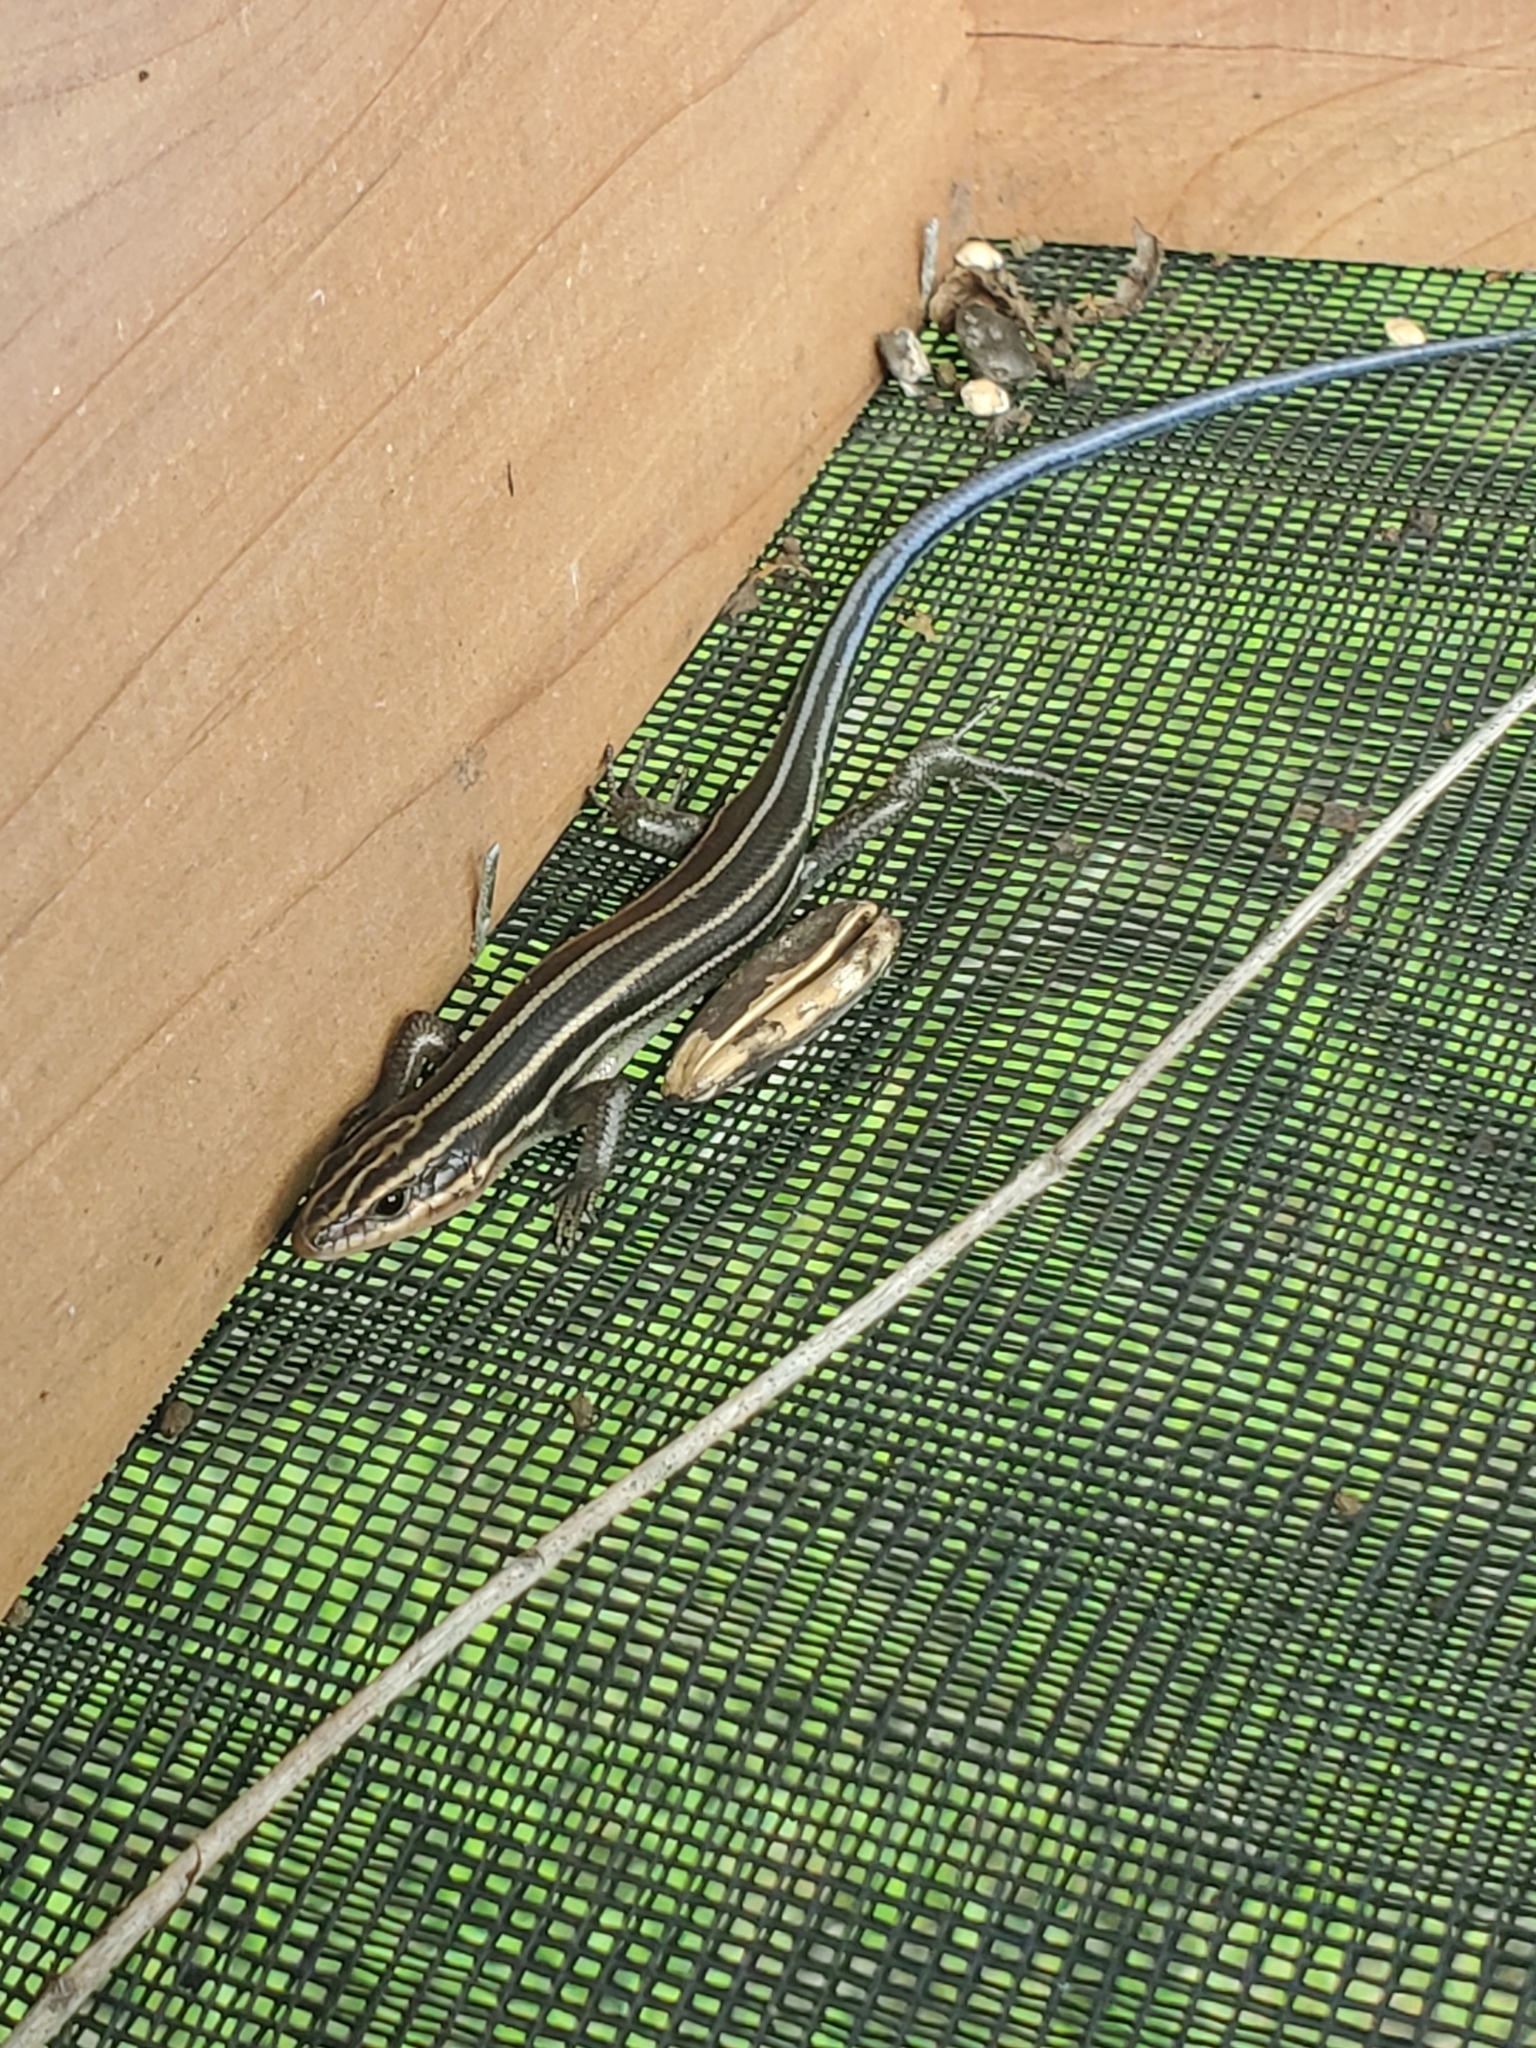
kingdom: Animalia
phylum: Chordata
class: Squamata
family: Scincidae
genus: Plestiodon
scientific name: Plestiodon fasciatus
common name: Five-lined skink
